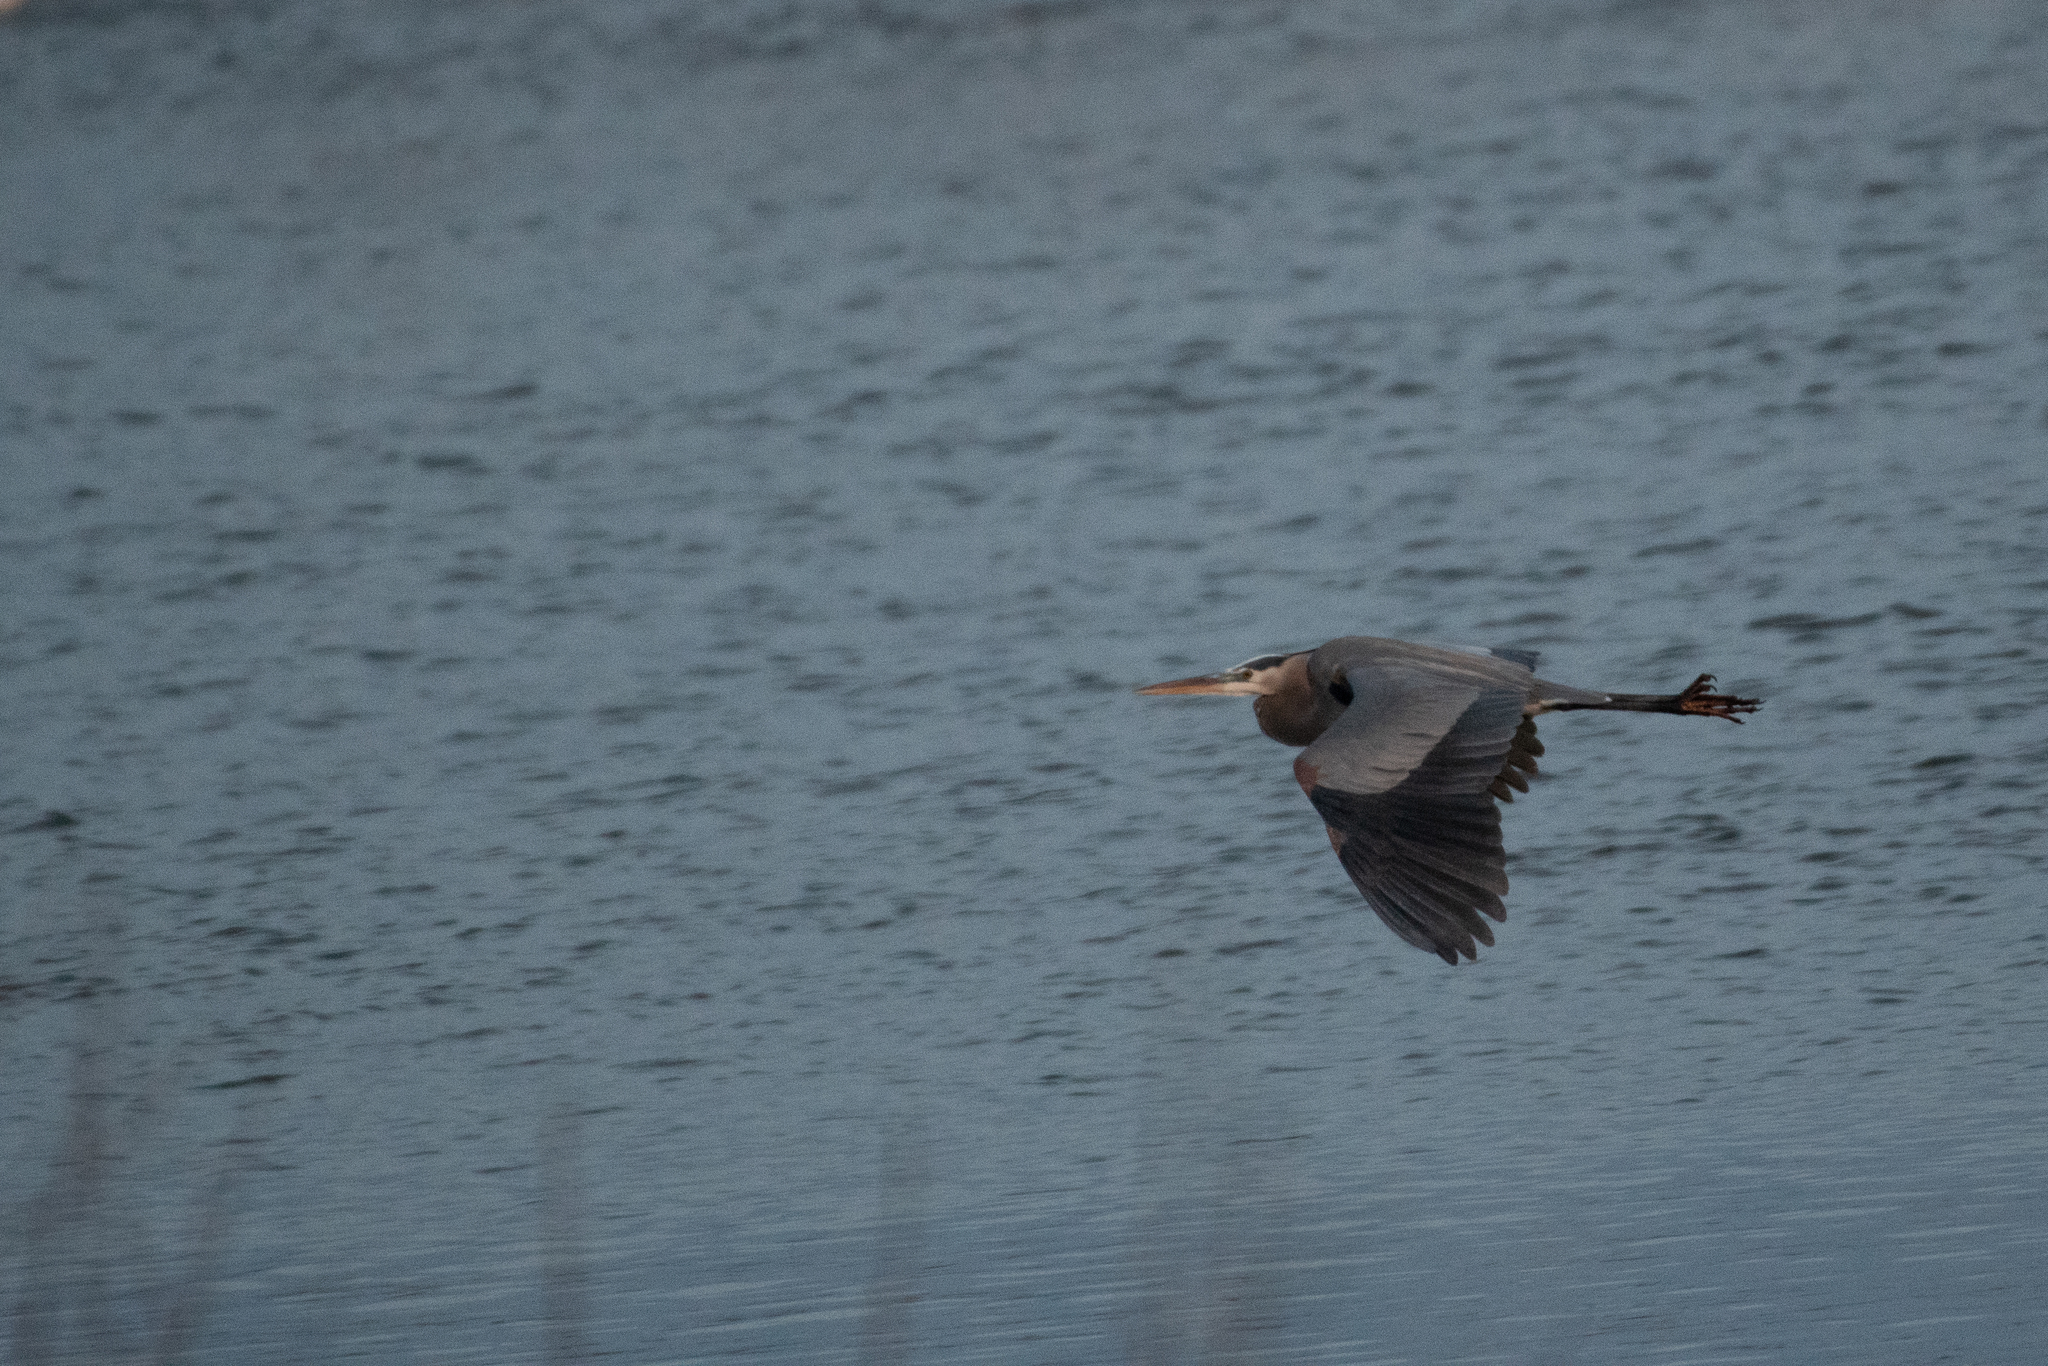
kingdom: Animalia
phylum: Chordata
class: Aves
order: Pelecaniformes
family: Ardeidae
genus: Ardea
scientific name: Ardea herodias
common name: Great blue heron
